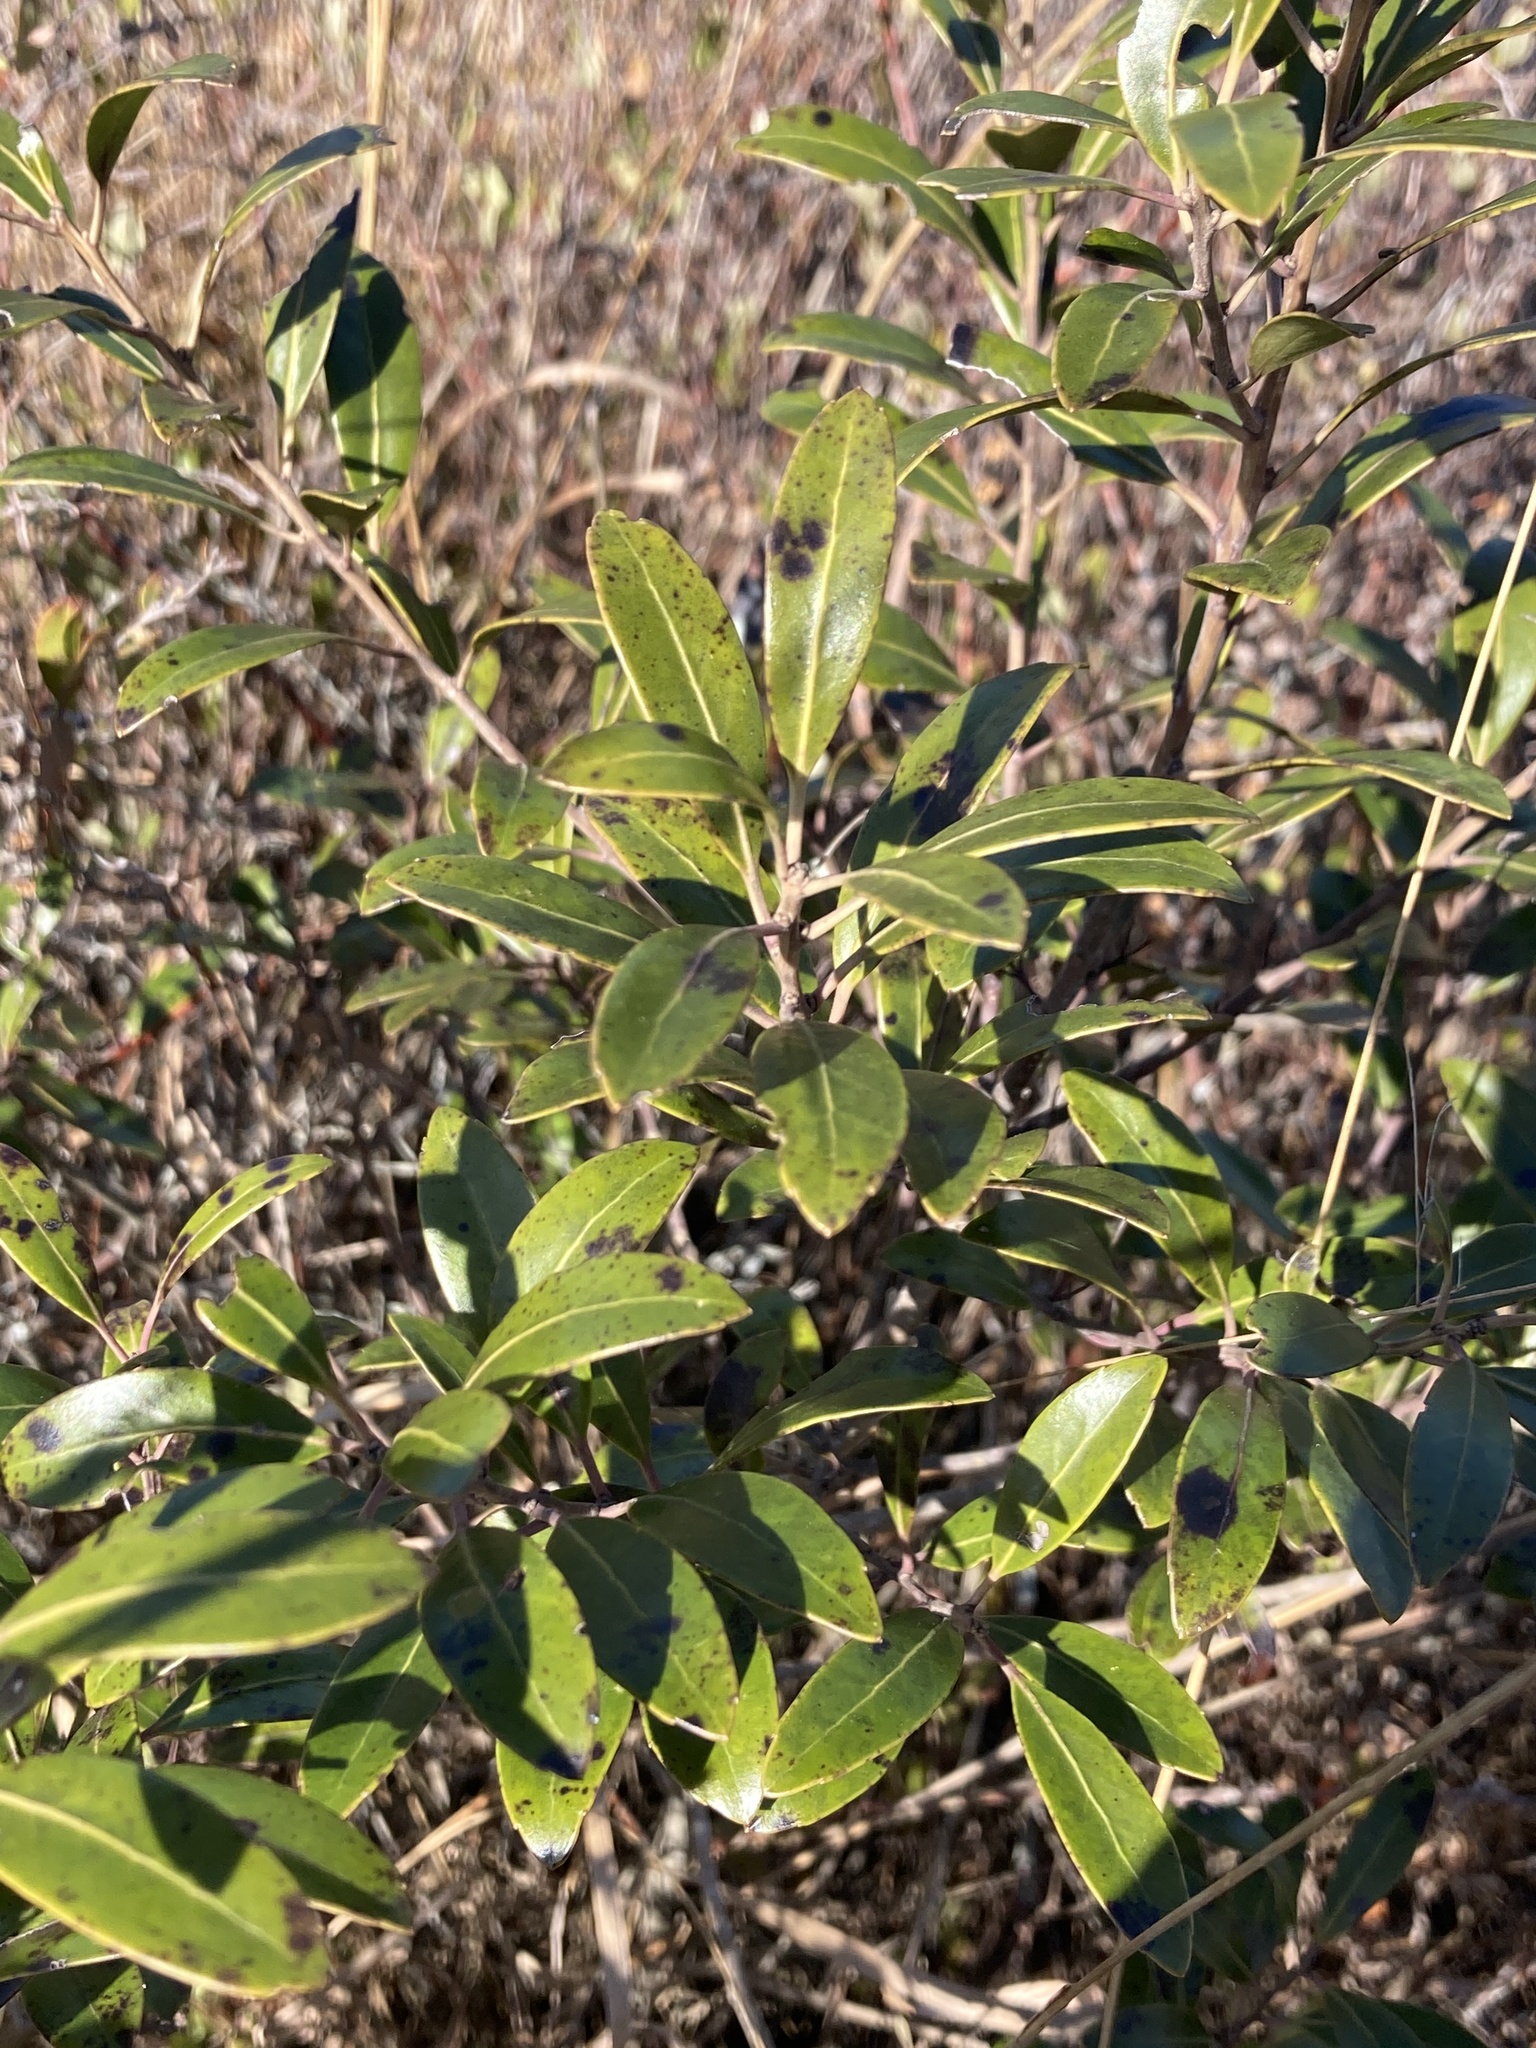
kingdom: Plantae
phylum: Tracheophyta
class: Magnoliopsida
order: Aquifoliales
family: Aquifoliaceae
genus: Ilex
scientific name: Ilex glabra
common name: Bitter gallberry
